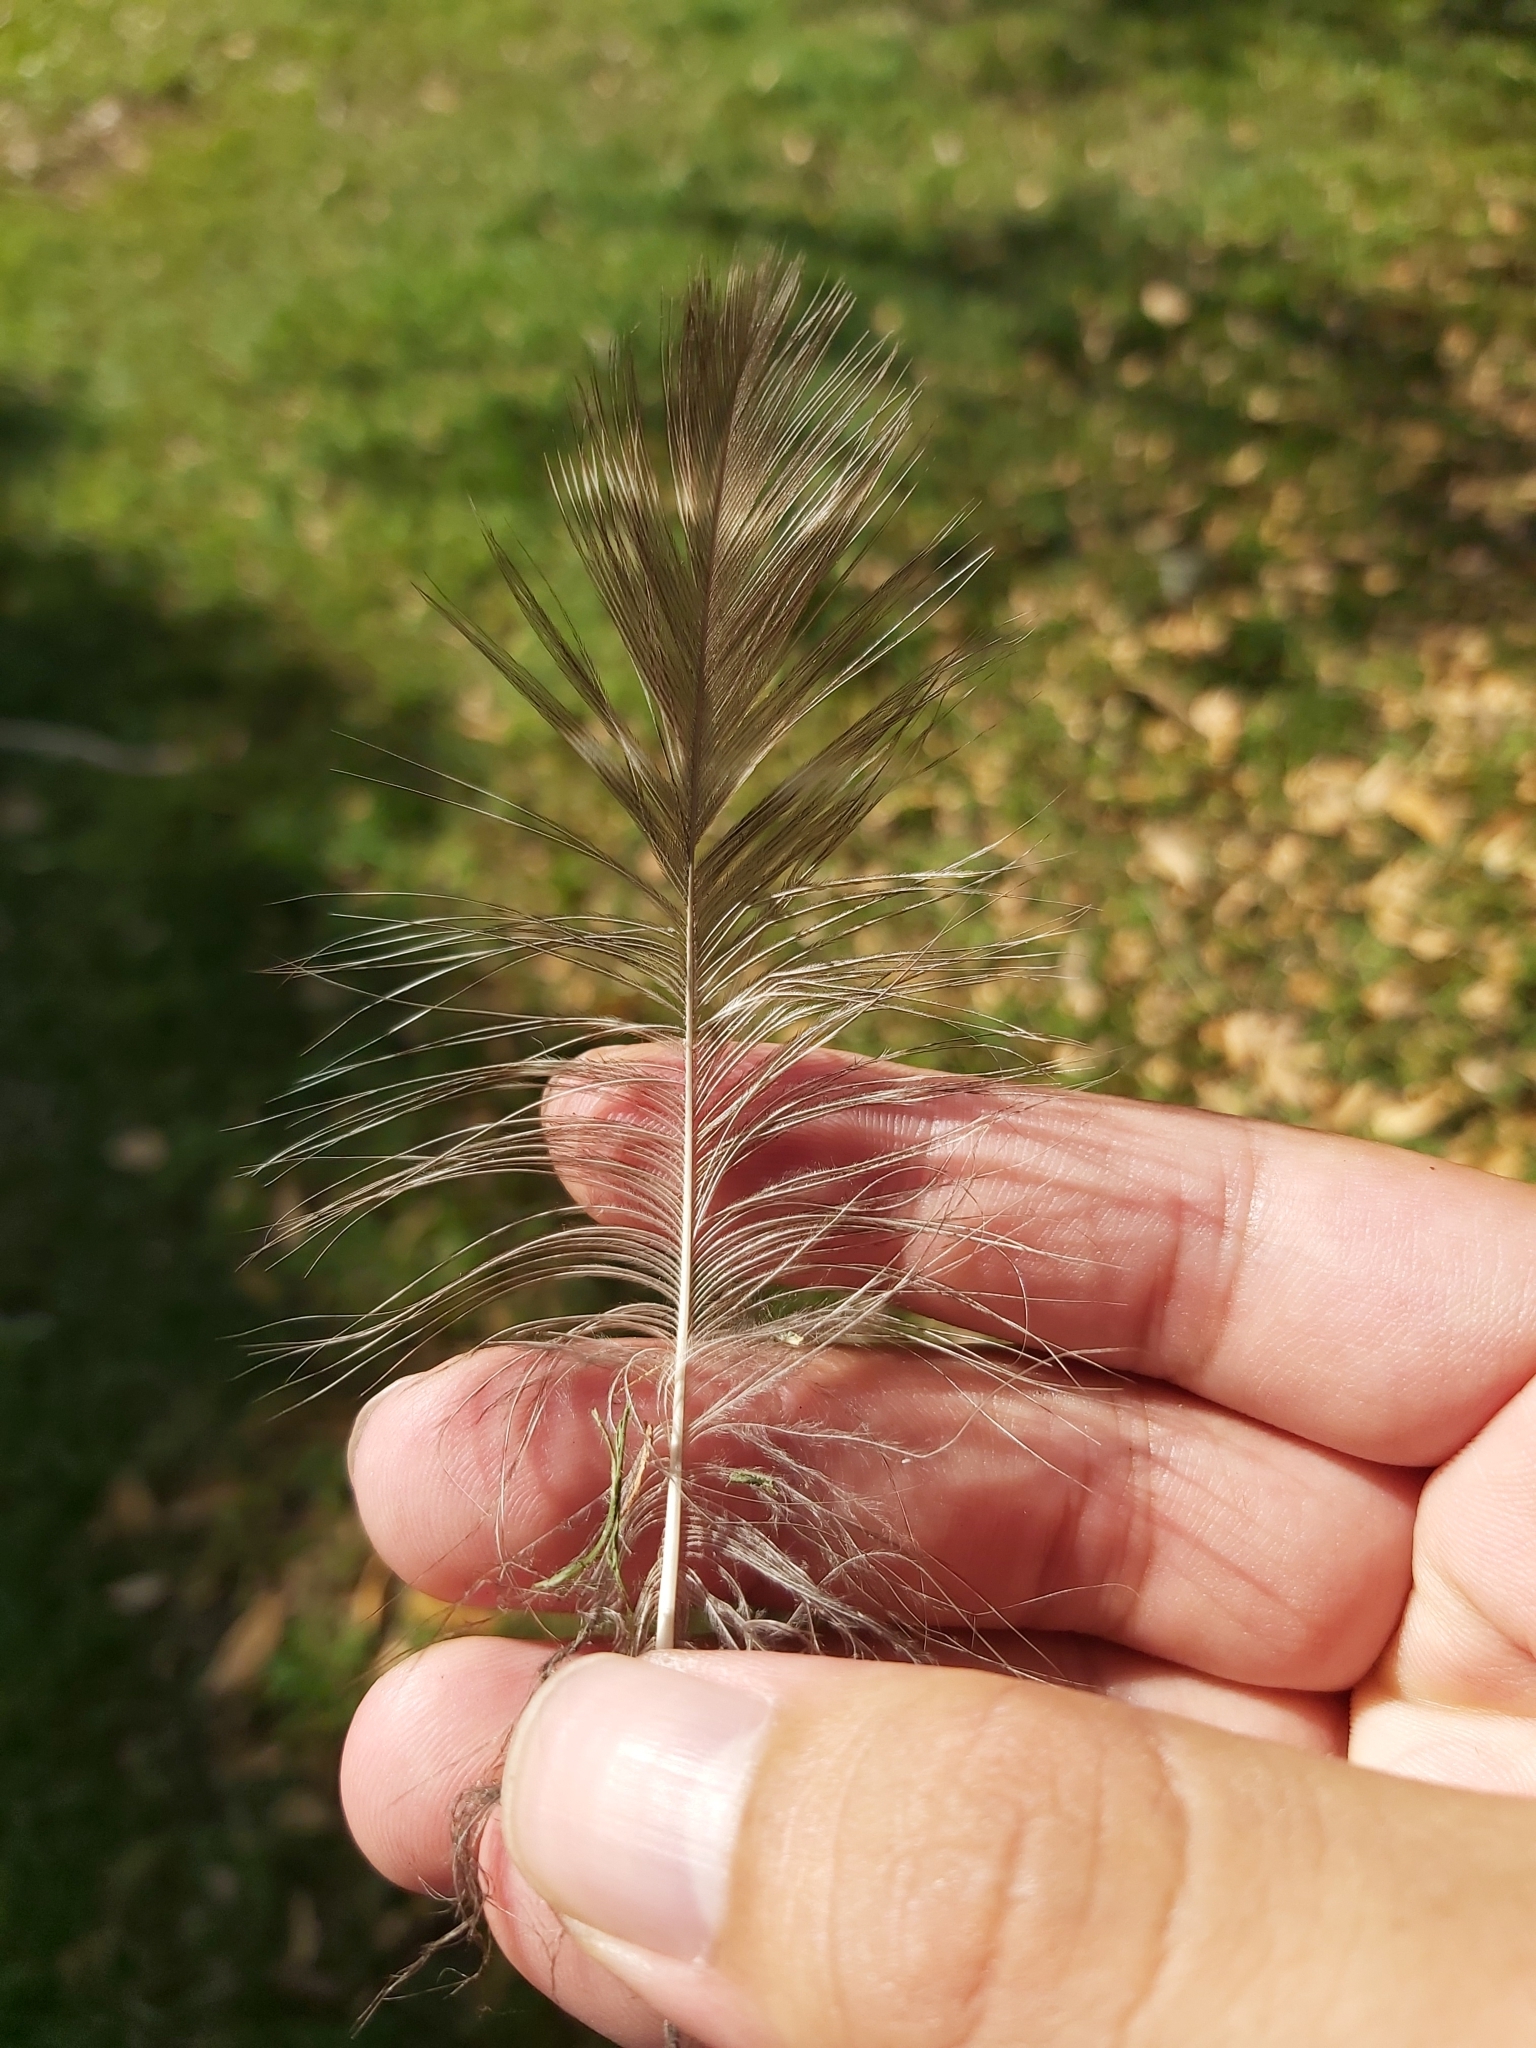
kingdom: Animalia
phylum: Chordata
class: Aves
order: Strigiformes
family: Strigidae
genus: Ninox
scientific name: Ninox strenua
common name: Powerful owl
